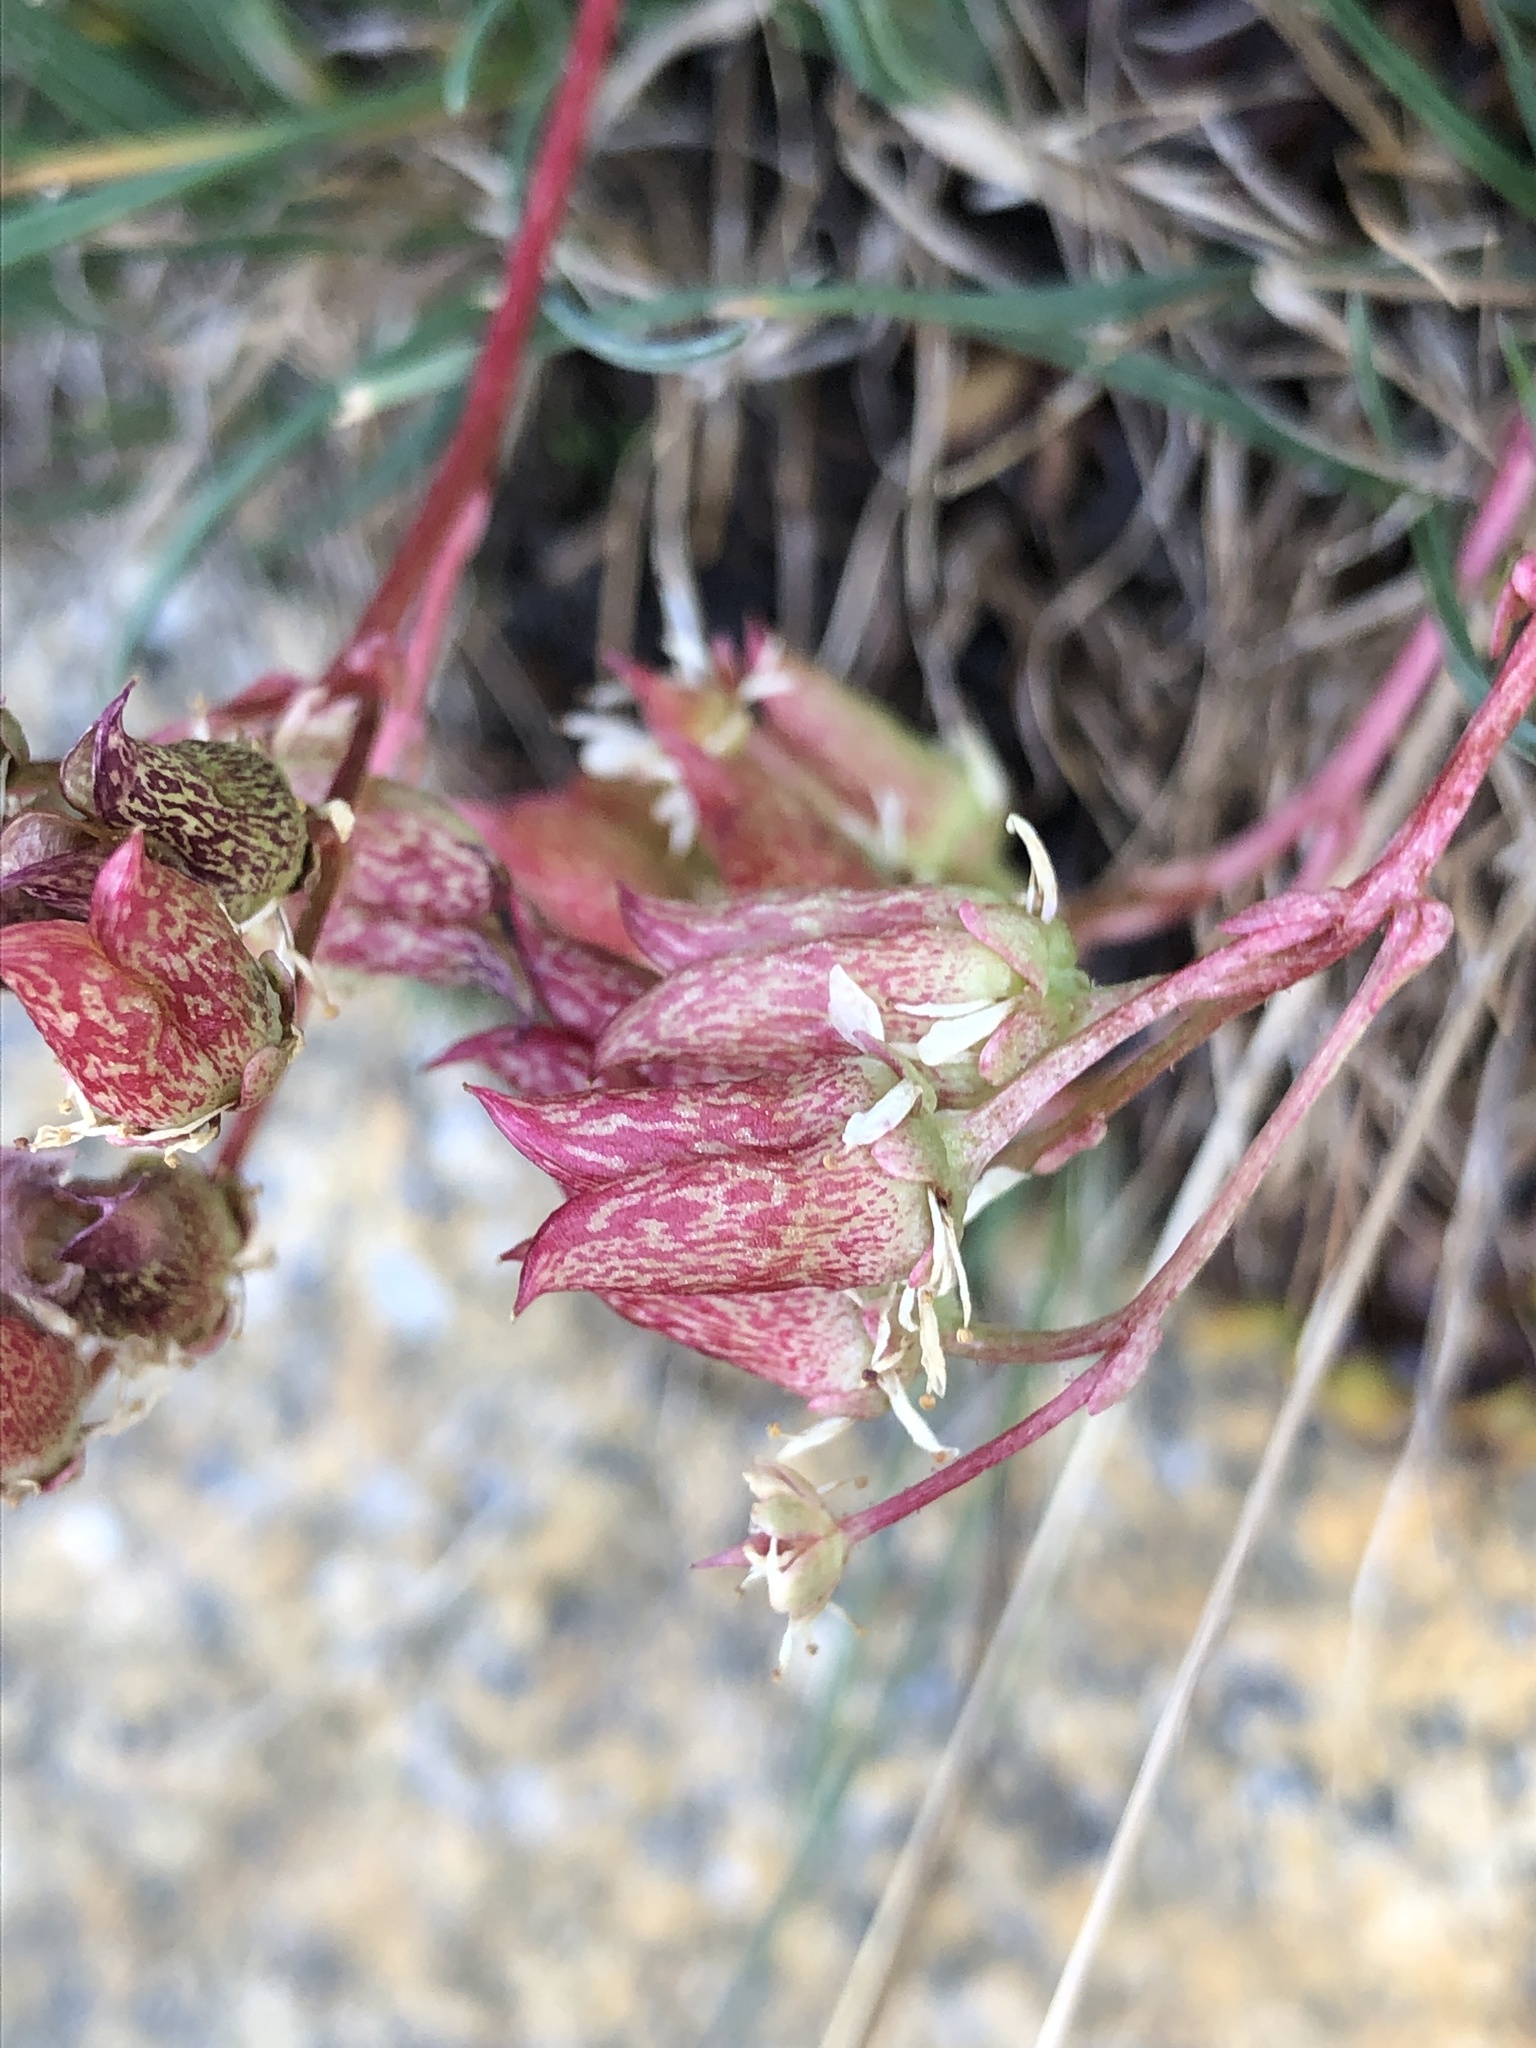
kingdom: Plantae
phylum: Tracheophyta
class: Magnoliopsida
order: Saxifragales
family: Saxifragaceae
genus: Micranthes
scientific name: Micranthes tolmiei
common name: Tolmie's saxifrage
